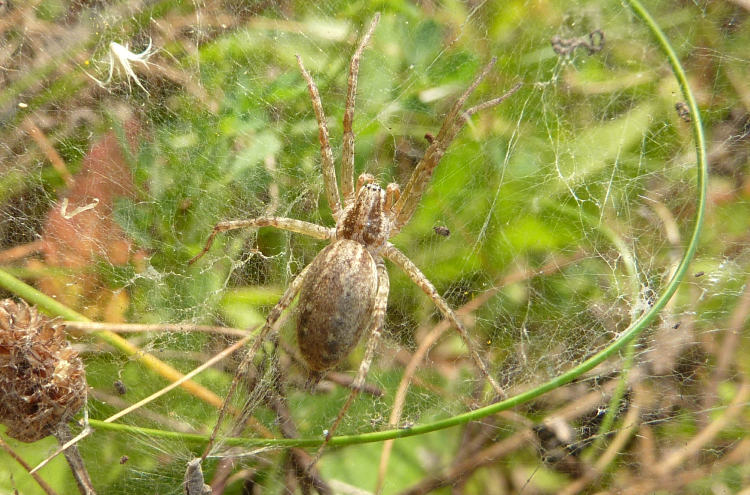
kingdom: Animalia
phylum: Arthropoda
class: Arachnida
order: Araneae
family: Agelenidae
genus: Allagelena
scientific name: Allagelena gracilens
